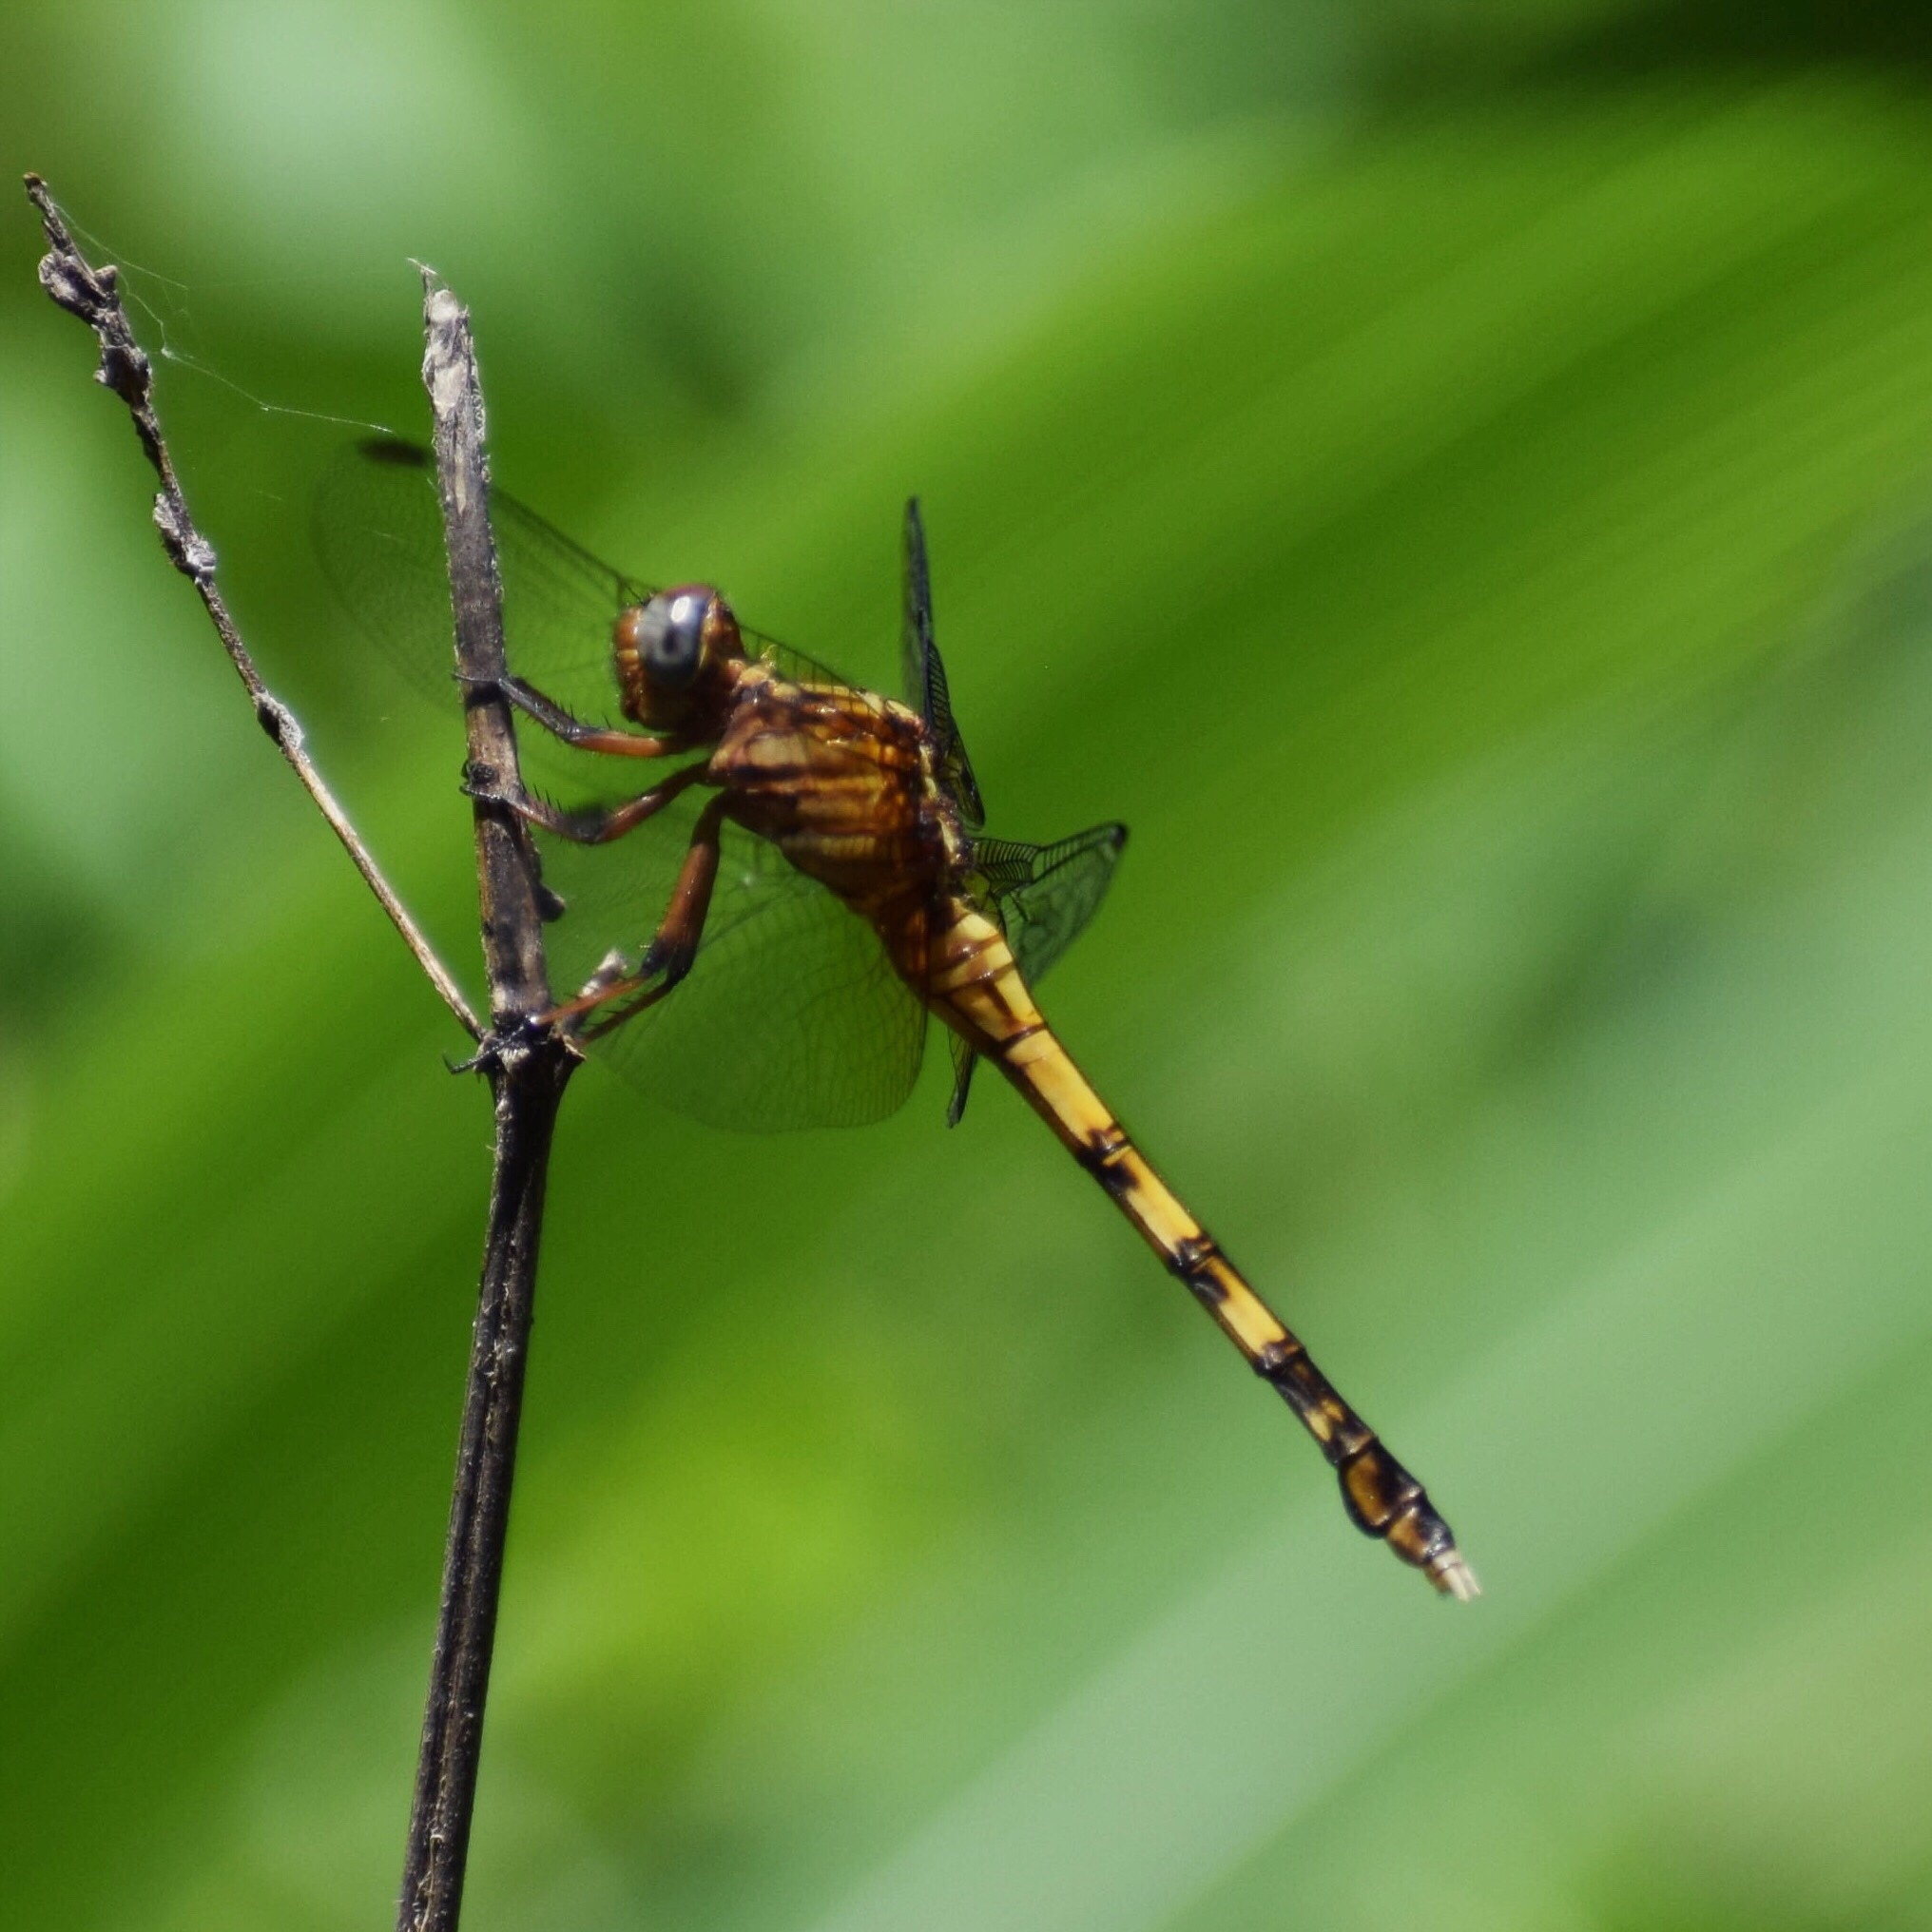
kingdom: Animalia
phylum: Arthropoda
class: Insecta
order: Odonata
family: Libellulidae
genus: Orthetrum
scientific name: Orthetrum julia
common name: Julia skimmer
